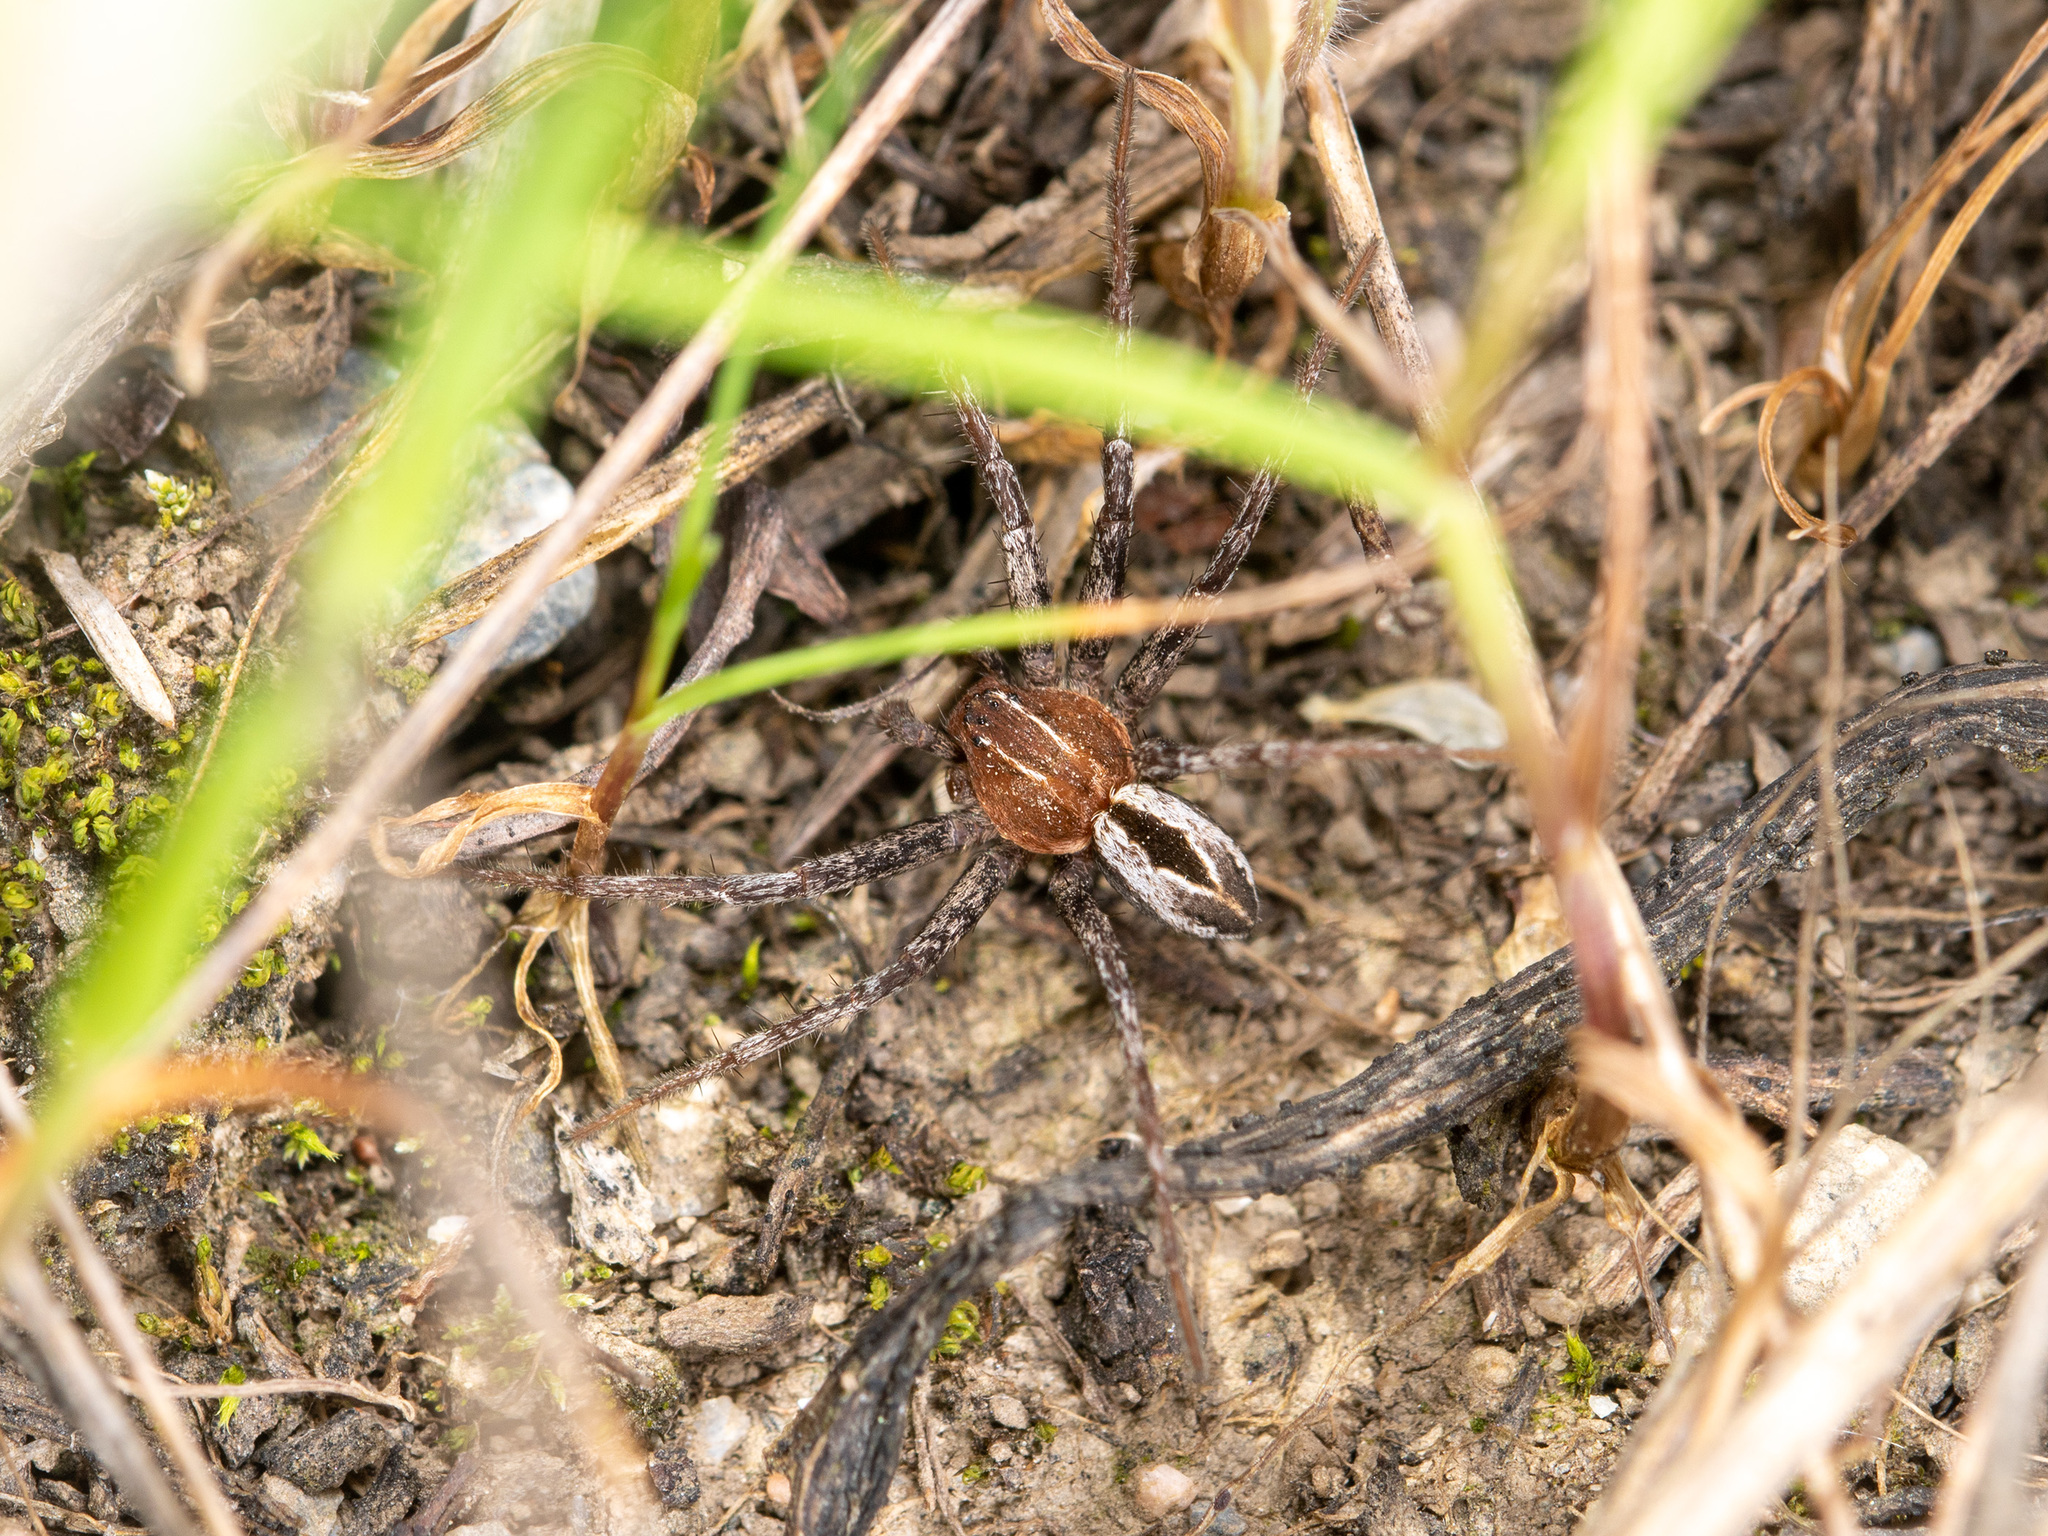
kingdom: Animalia
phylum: Arthropoda
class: Arachnida
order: Araneae
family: Philodromidae
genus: Thanatus
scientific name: Thanatus arenarius
